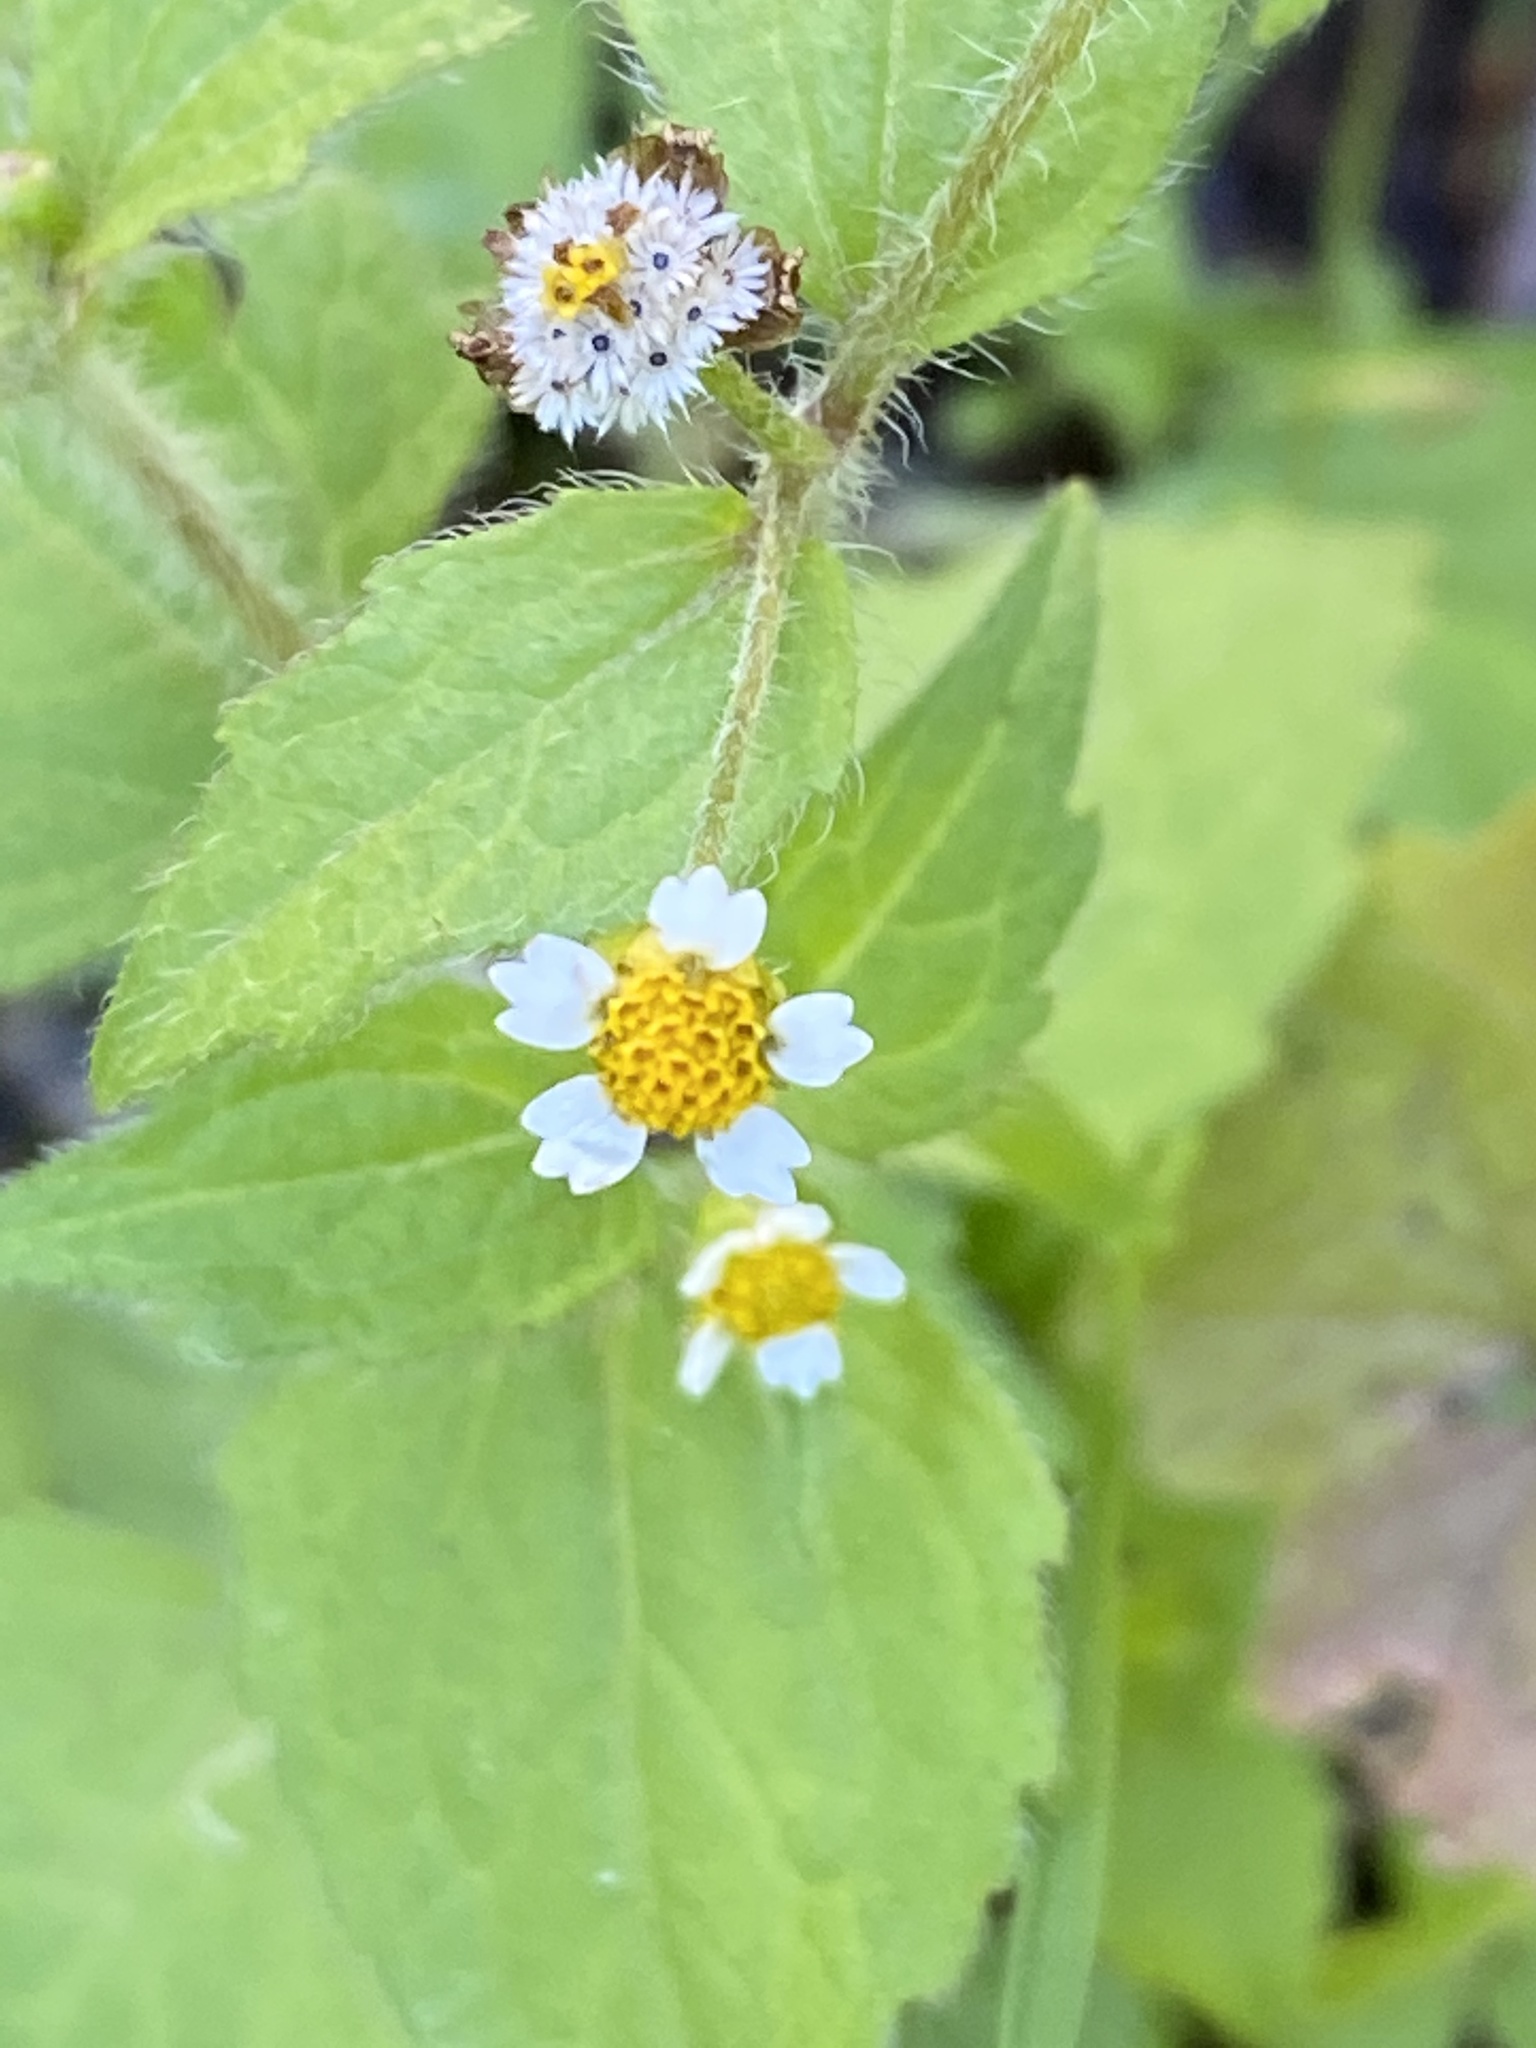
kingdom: Plantae
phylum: Tracheophyta
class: Magnoliopsida
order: Asterales
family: Asteraceae
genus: Galinsoga
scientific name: Galinsoga quadriradiata
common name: Shaggy soldier
